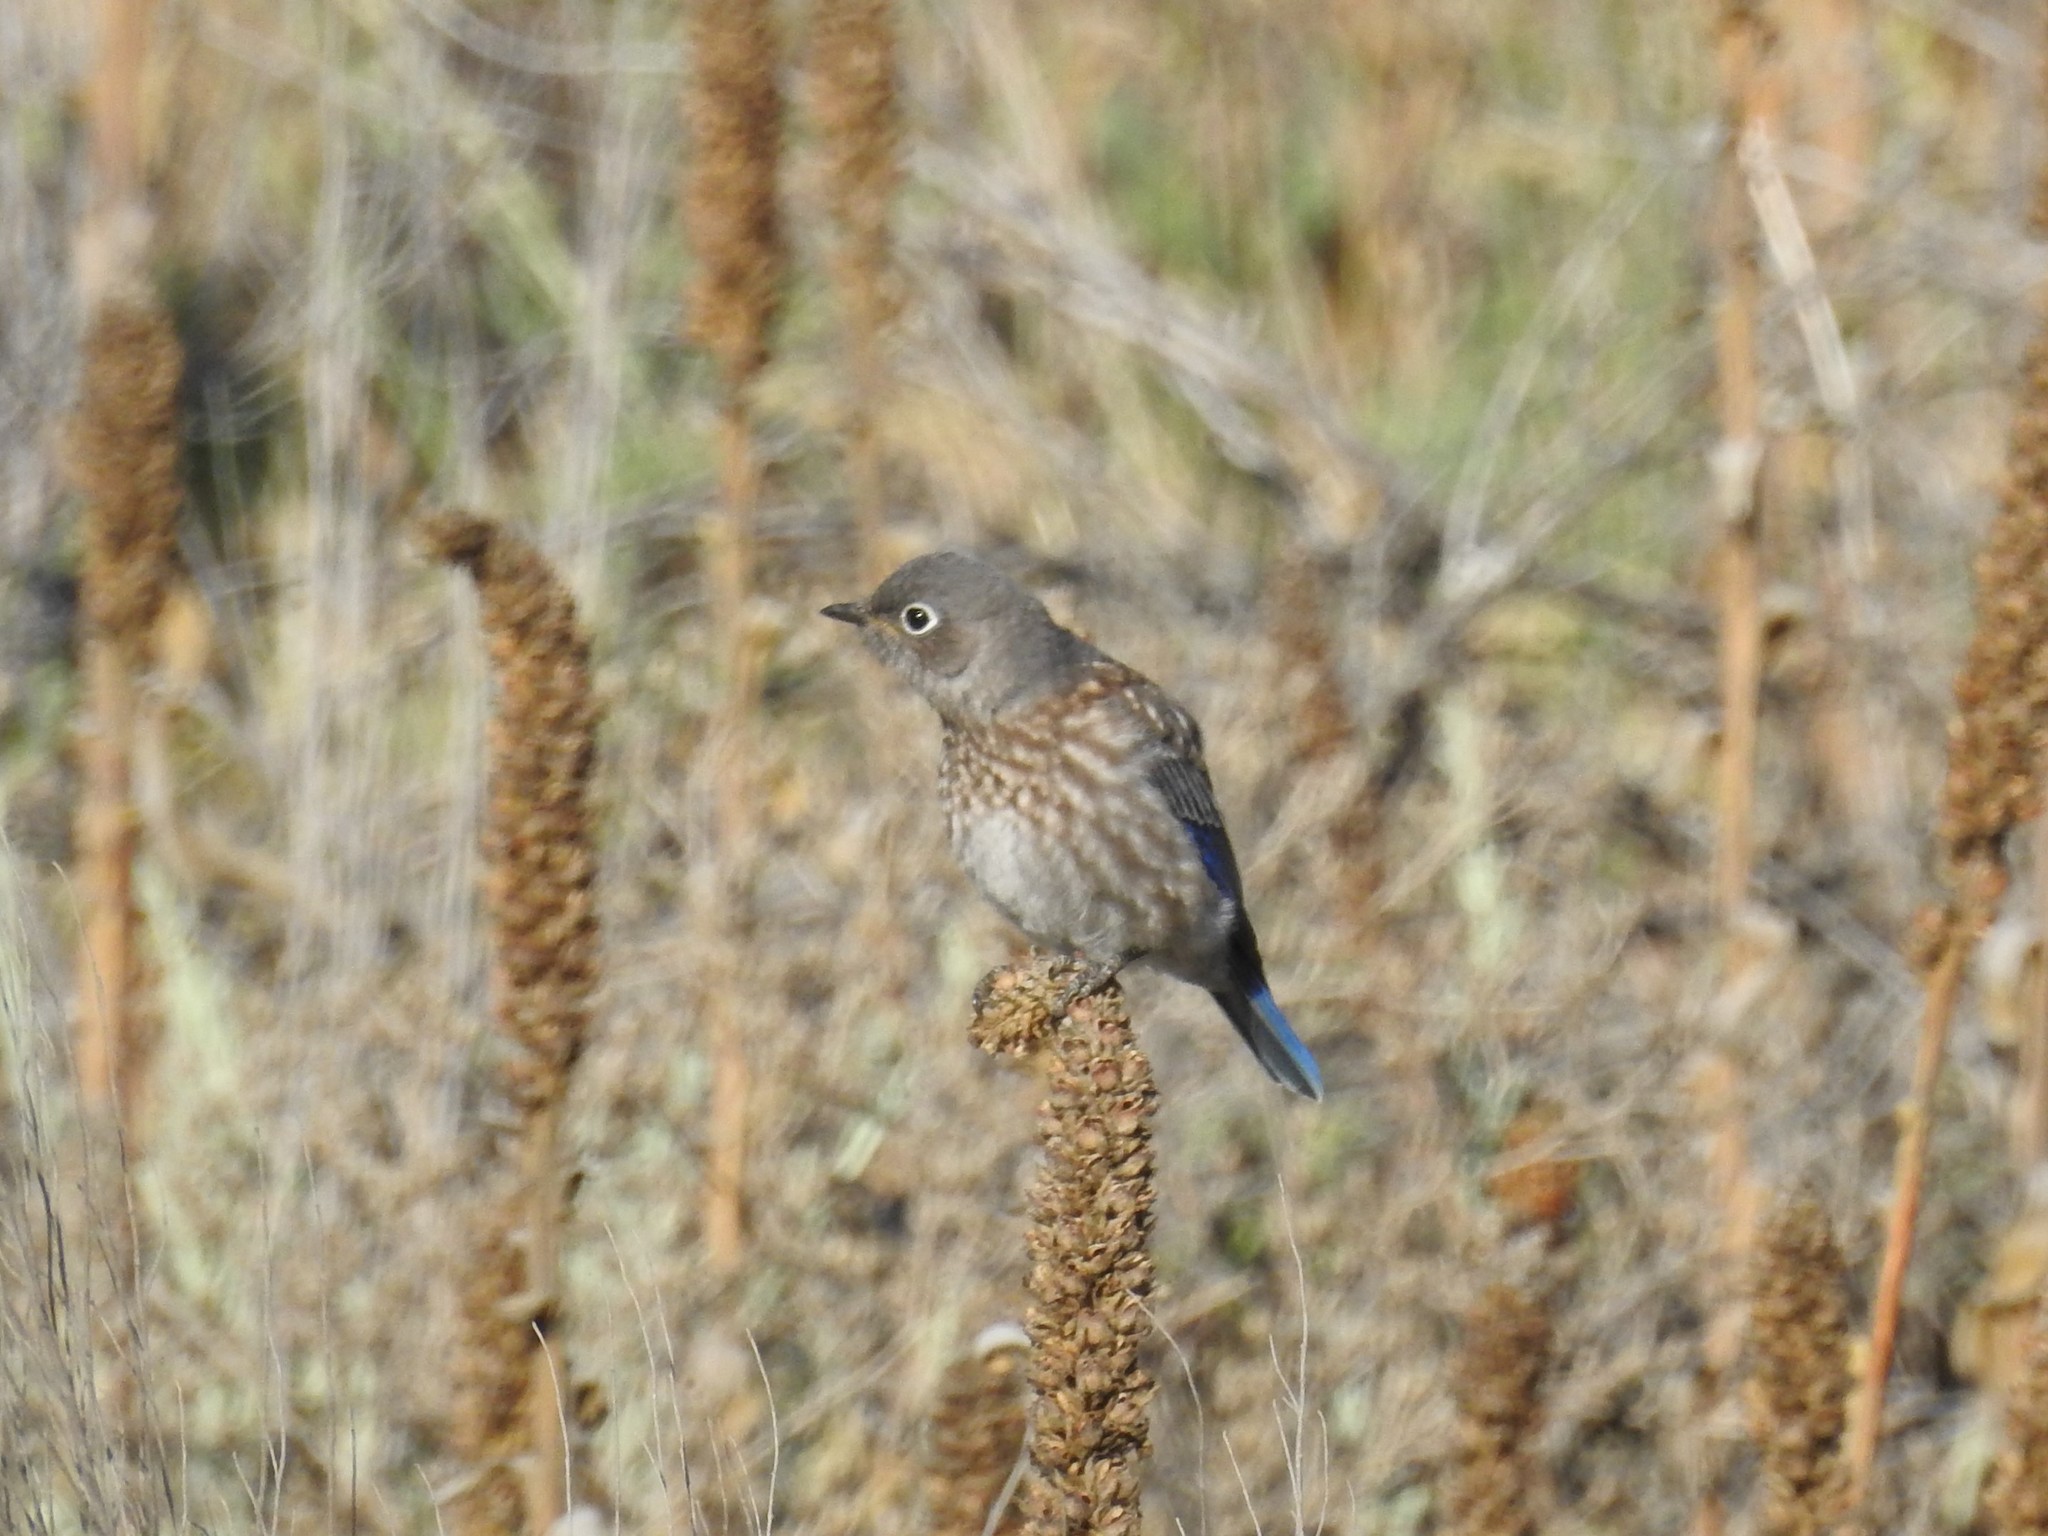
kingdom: Animalia
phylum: Chordata
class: Aves
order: Passeriformes
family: Turdidae
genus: Sialia
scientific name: Sialia mexicana
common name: Western bluebird
